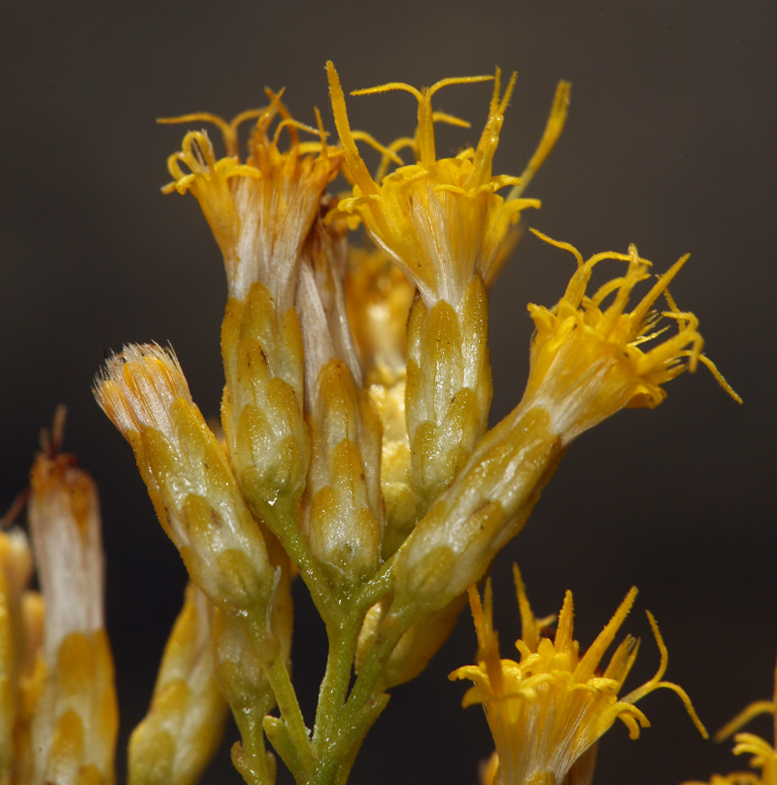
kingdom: Plantae
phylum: Tracheophyta
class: Magnoliopsida
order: Asterales
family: Asteraceae
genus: Ericameria
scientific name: Ericameria paniculata
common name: Punctate rabbitbrush
